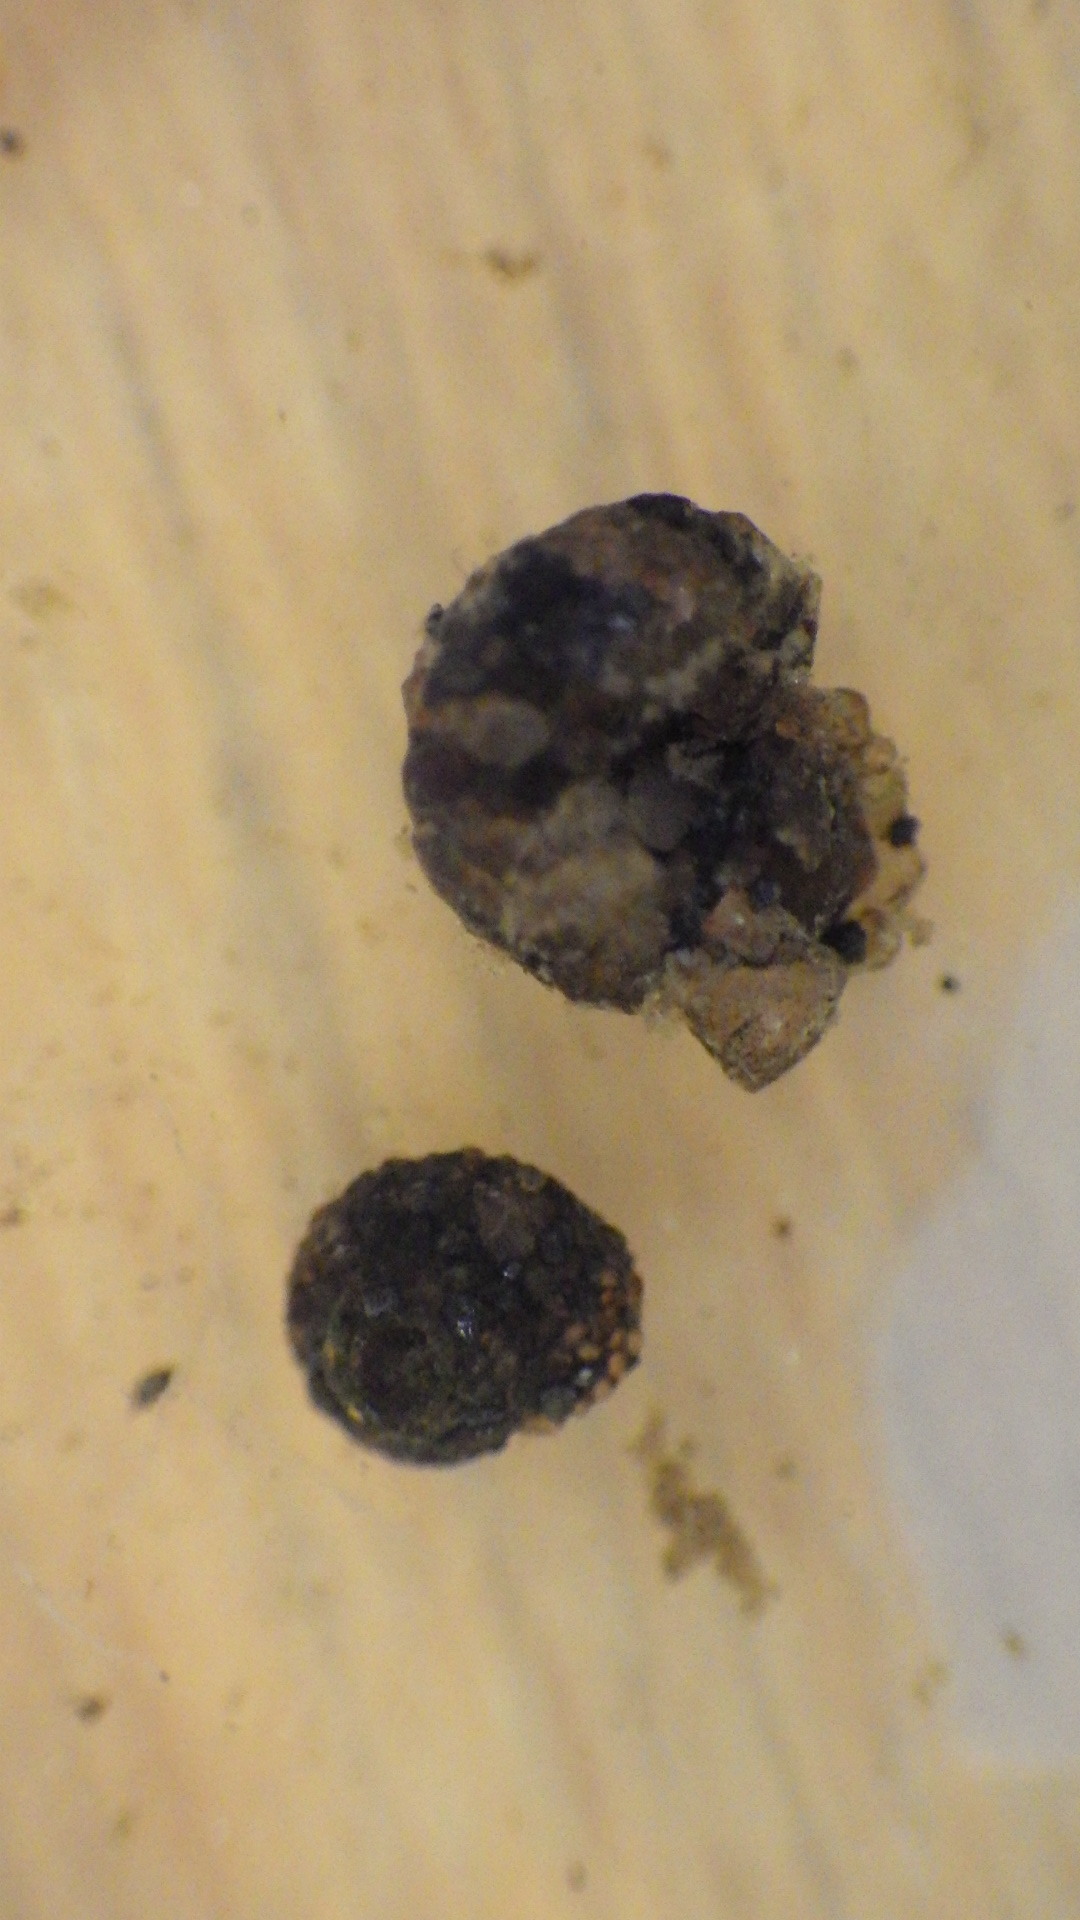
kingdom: Animalia
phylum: Arthropoda
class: Insecta
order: Trichoptera
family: Helicopsychidae
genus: Helicopsyche
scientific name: Helicopsyche borealis
